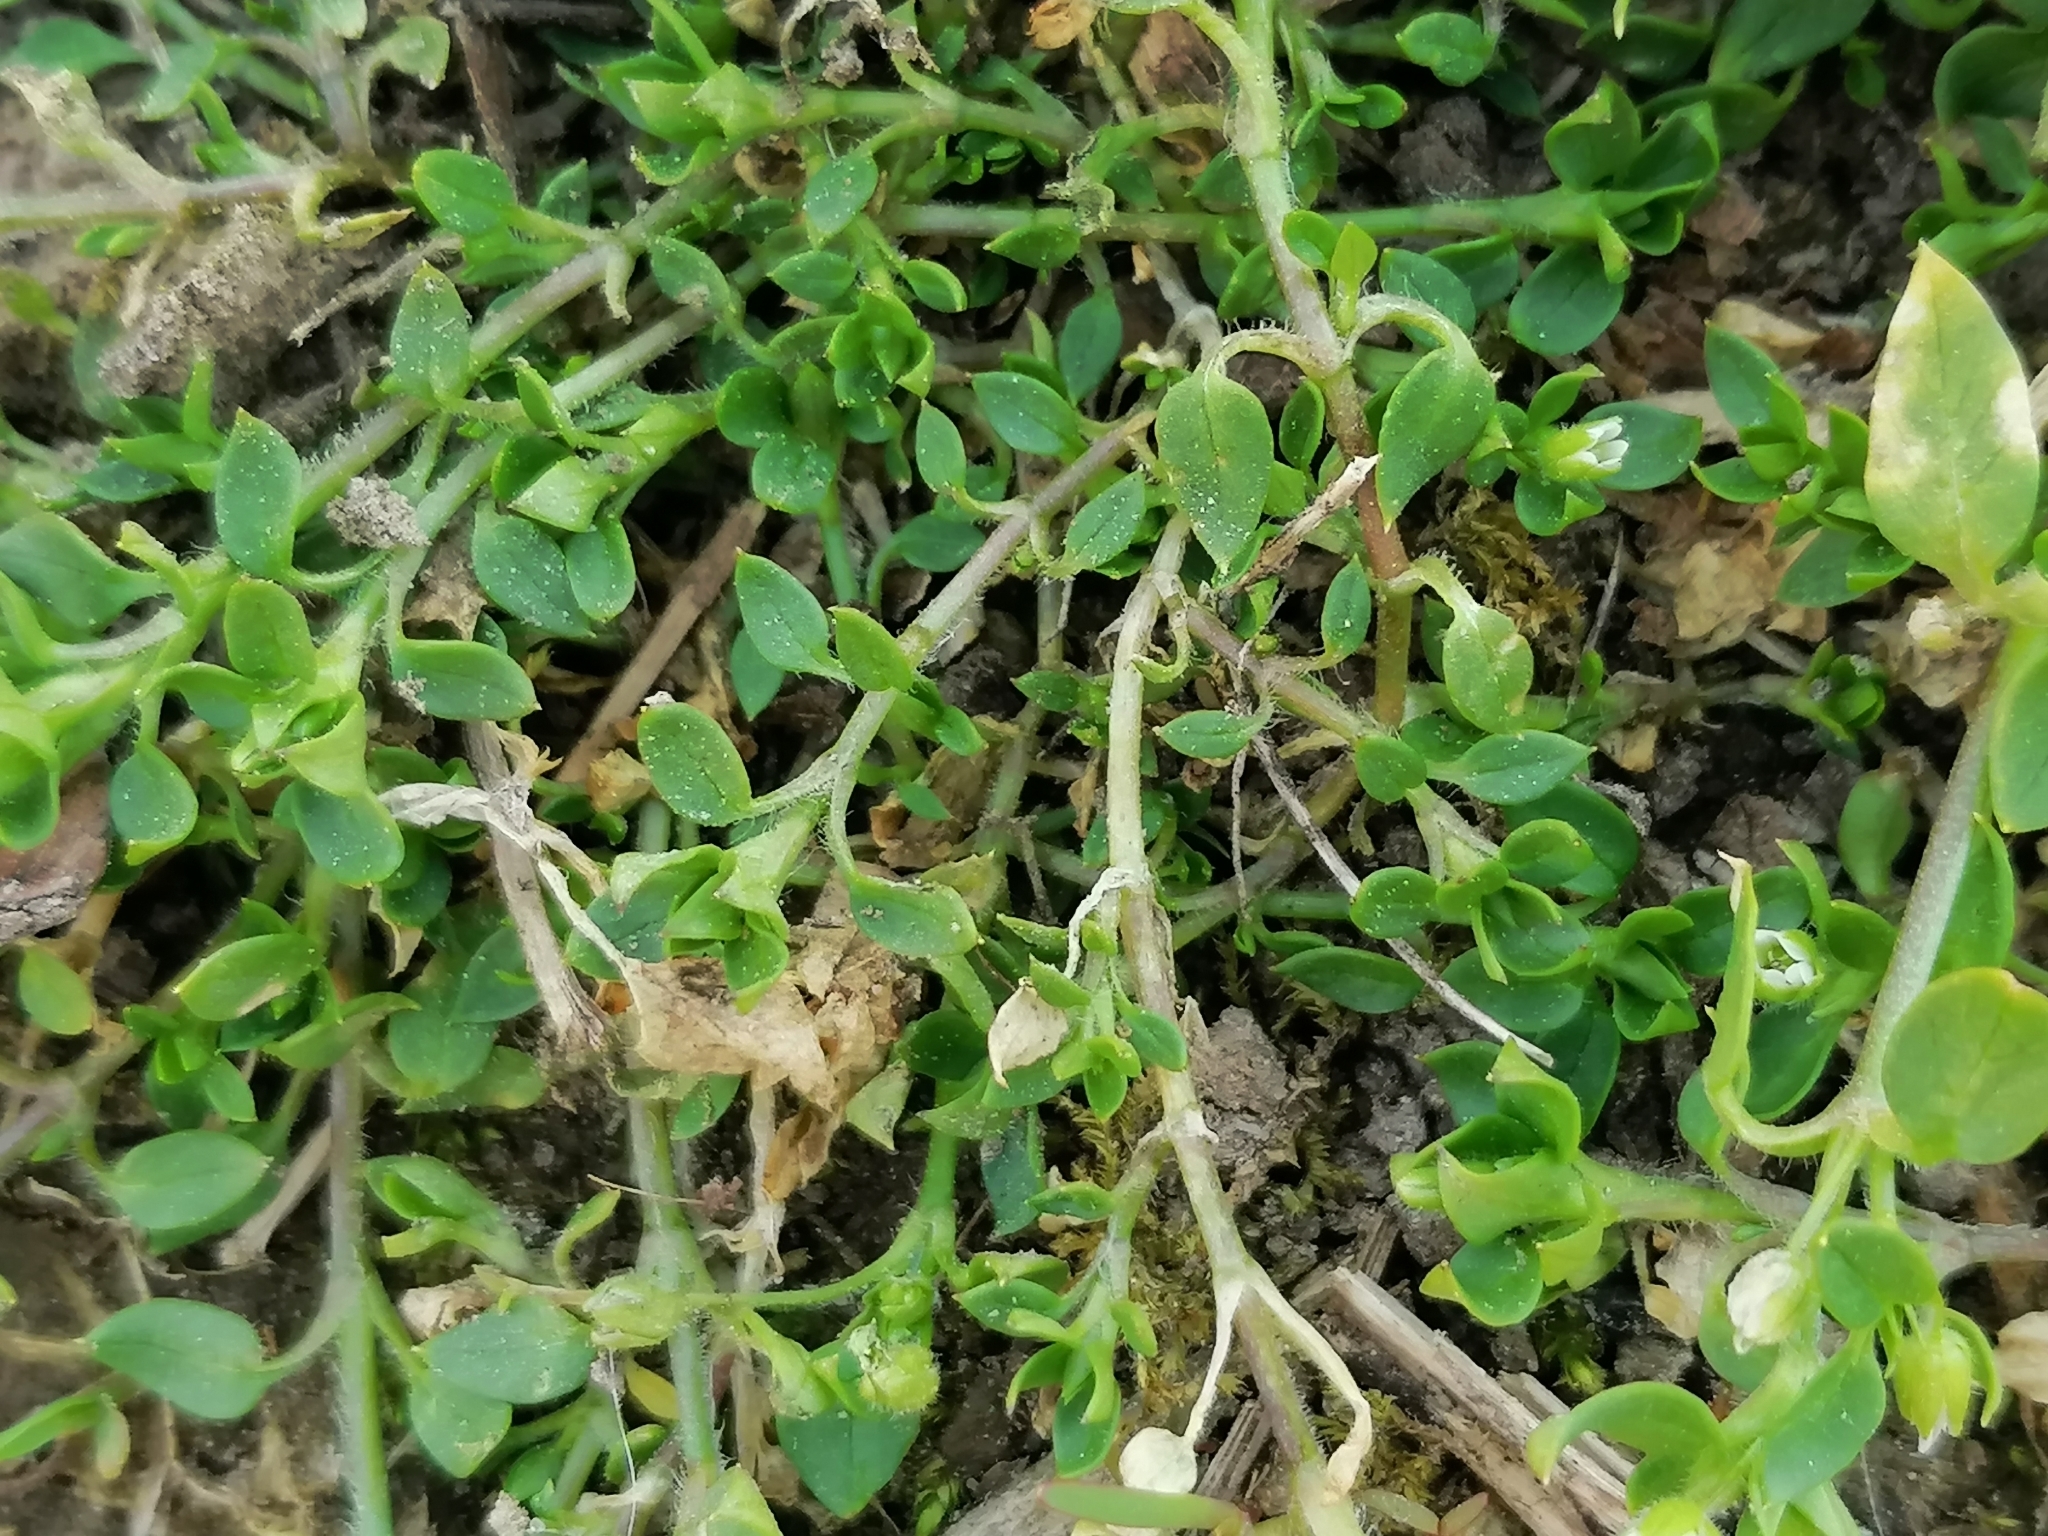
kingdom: Plantae
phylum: Tracheophyta
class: Magnoliopsida
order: Caryophyllales
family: Caryophyllaceae
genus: Stellaria
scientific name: Stellaria media
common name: Common chickweed
